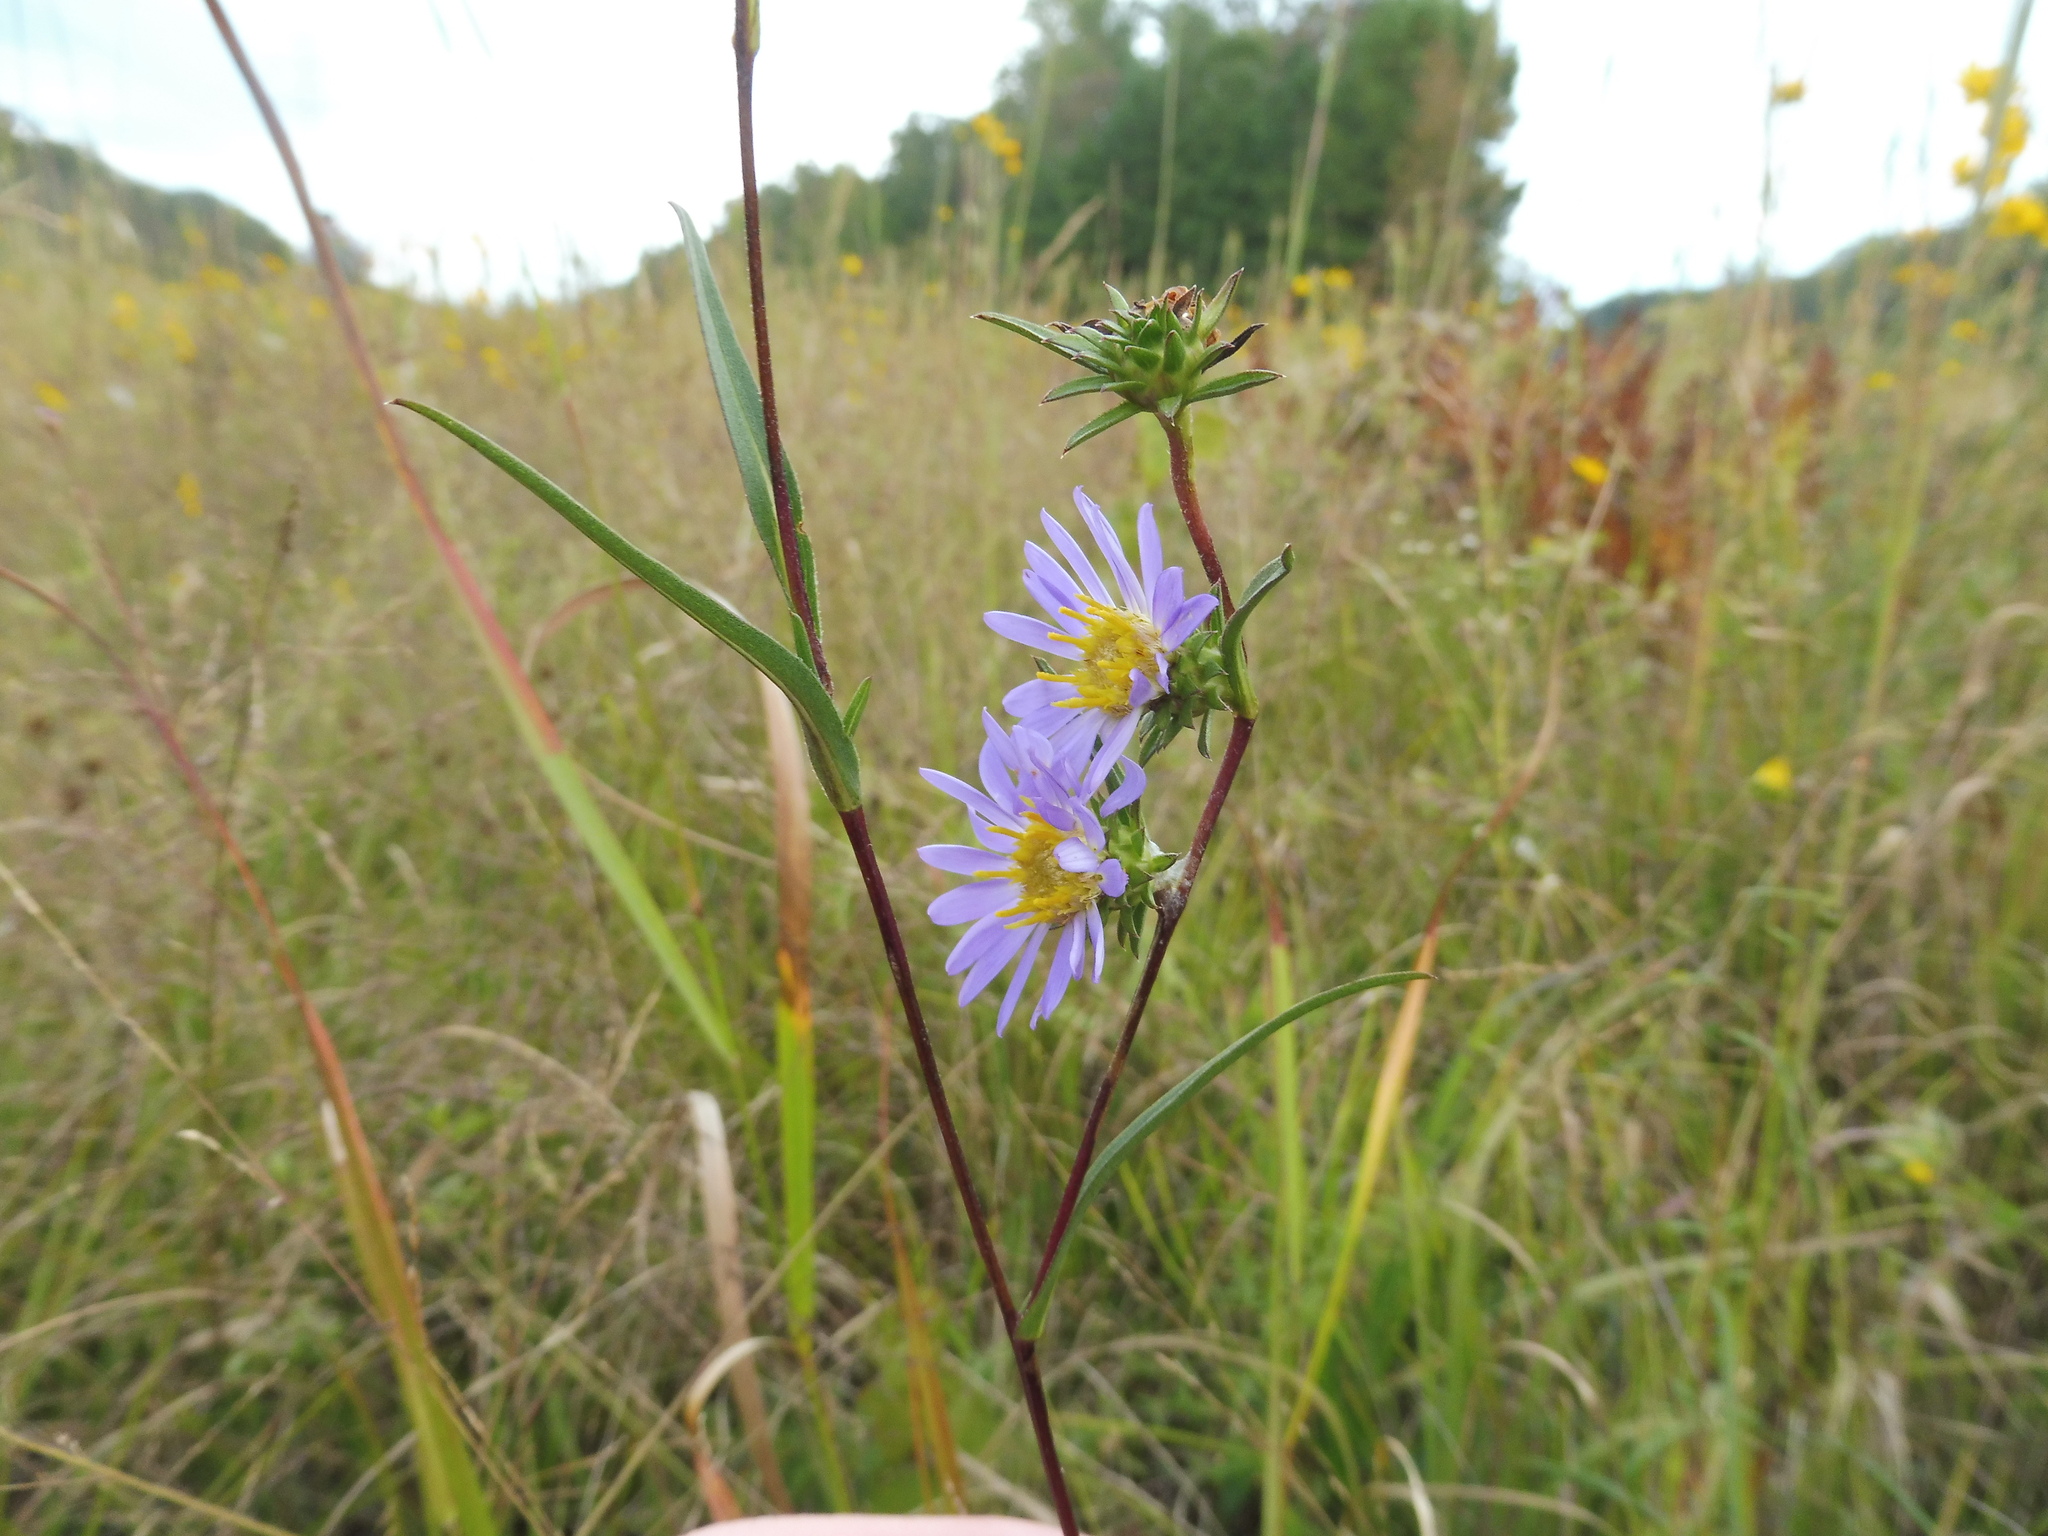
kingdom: Plantae
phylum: Tracheophyta
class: Magnoliopsida
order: Asterales
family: Asteraceae
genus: Eurybia
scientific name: Eurybia hemispherica
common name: Showy aster
